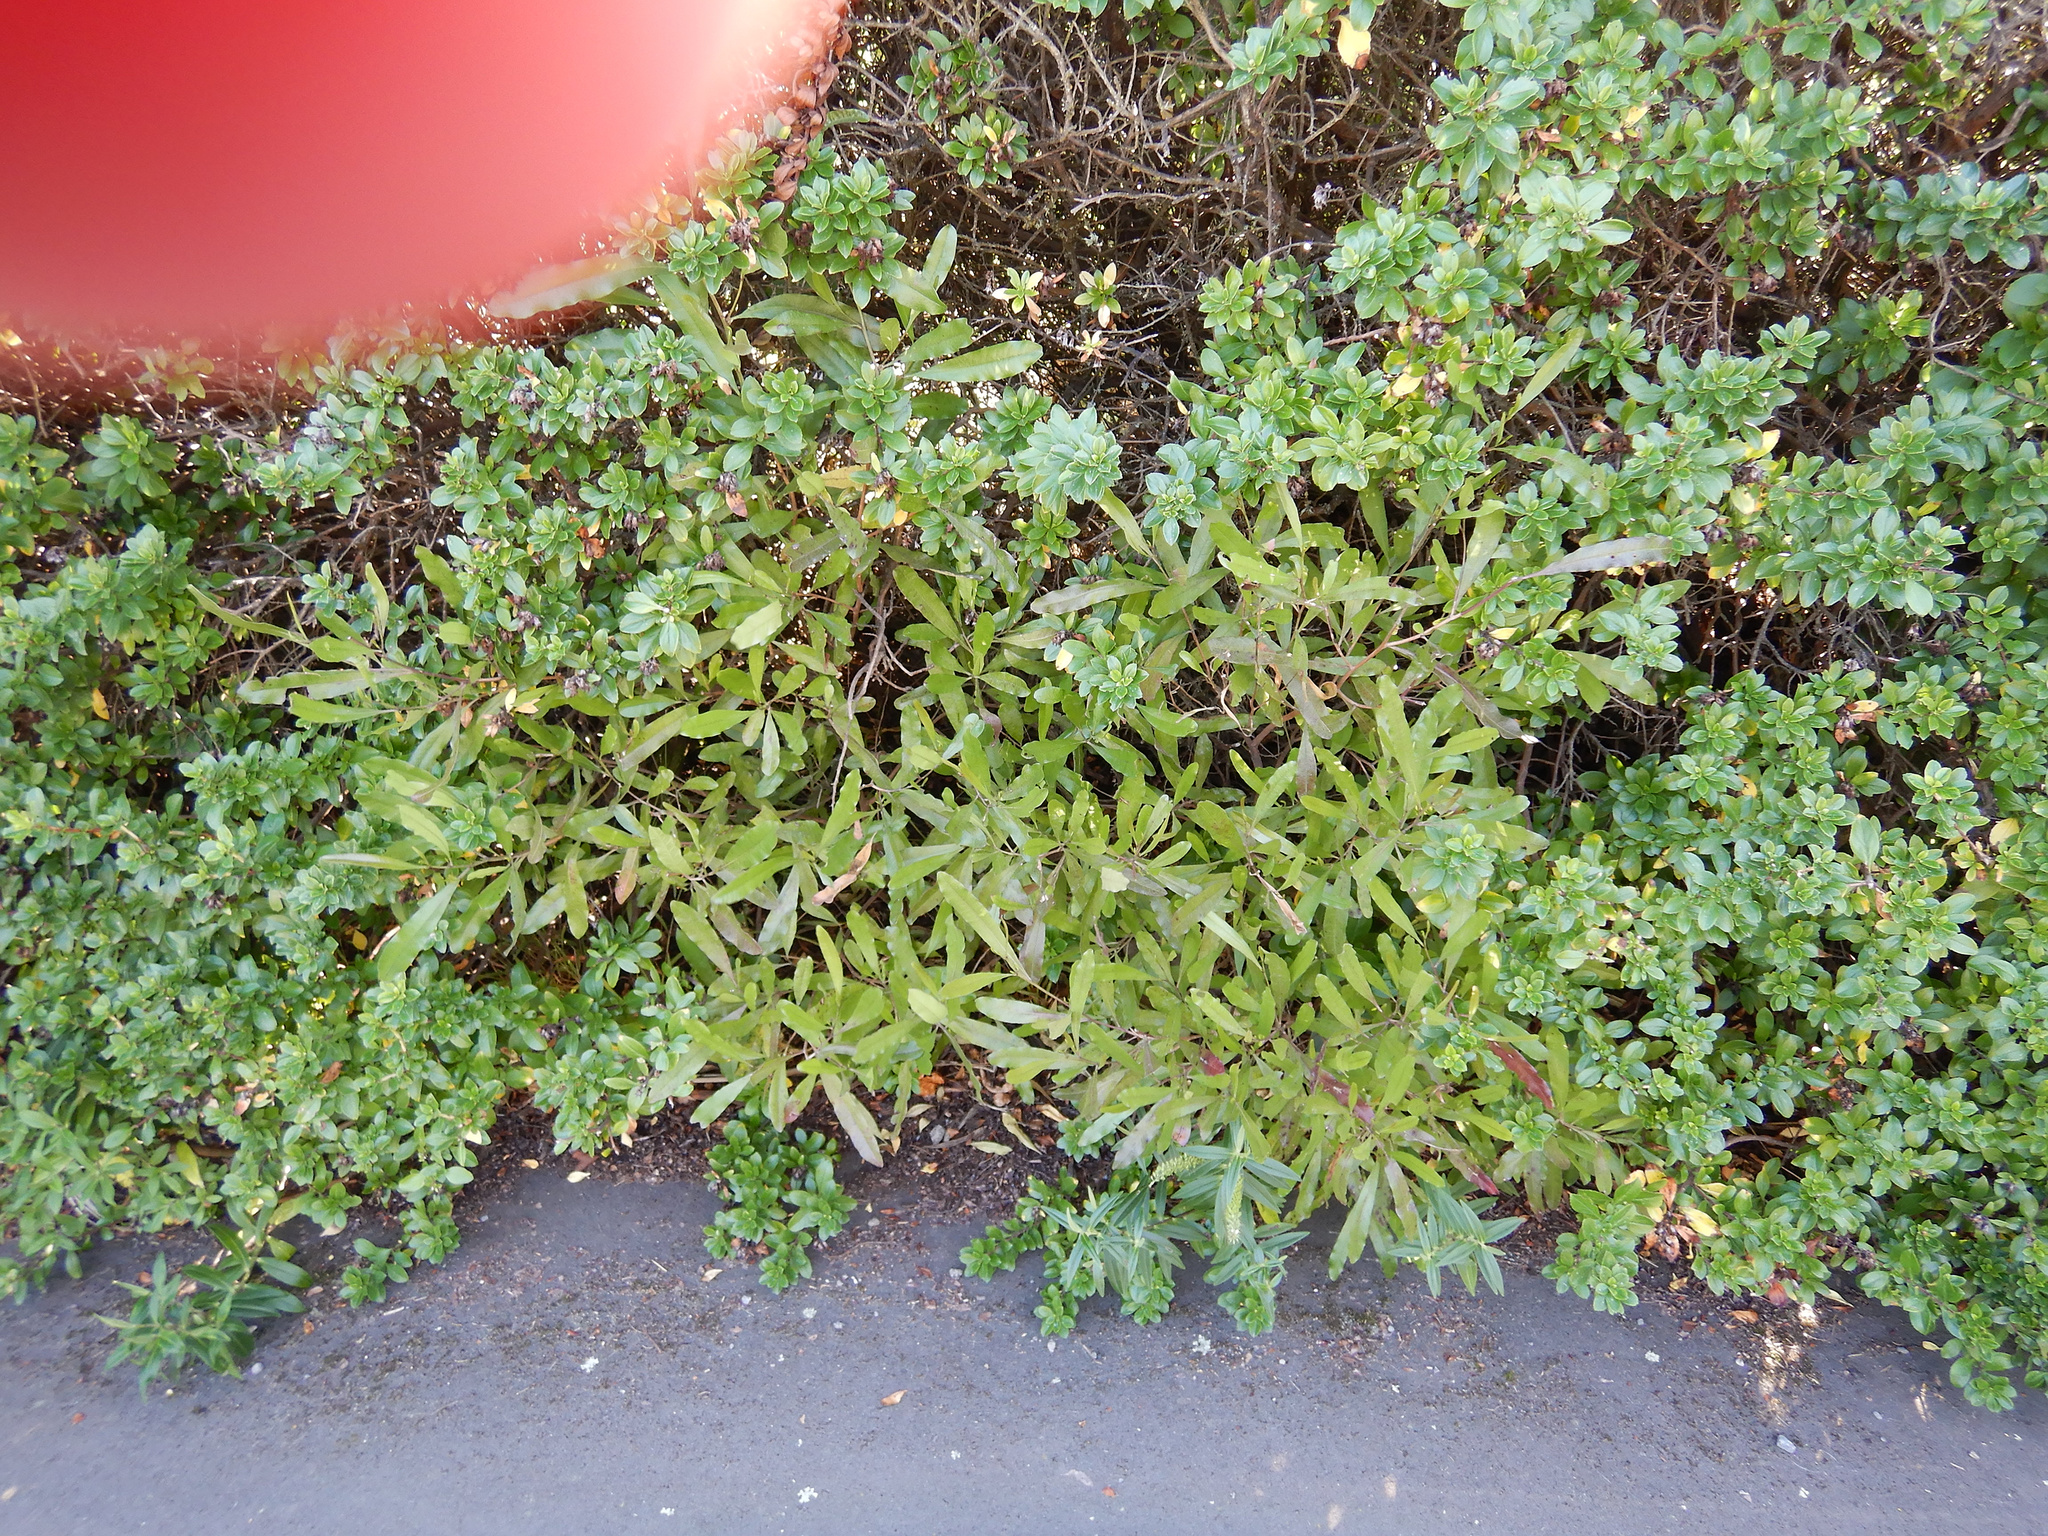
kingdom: Plantae
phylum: Tracheophyta
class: Magnoliopsida
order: Sapindales
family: Sapindaceae
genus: Dodonaea
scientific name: Dodonaea viscosa
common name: Hopbush
